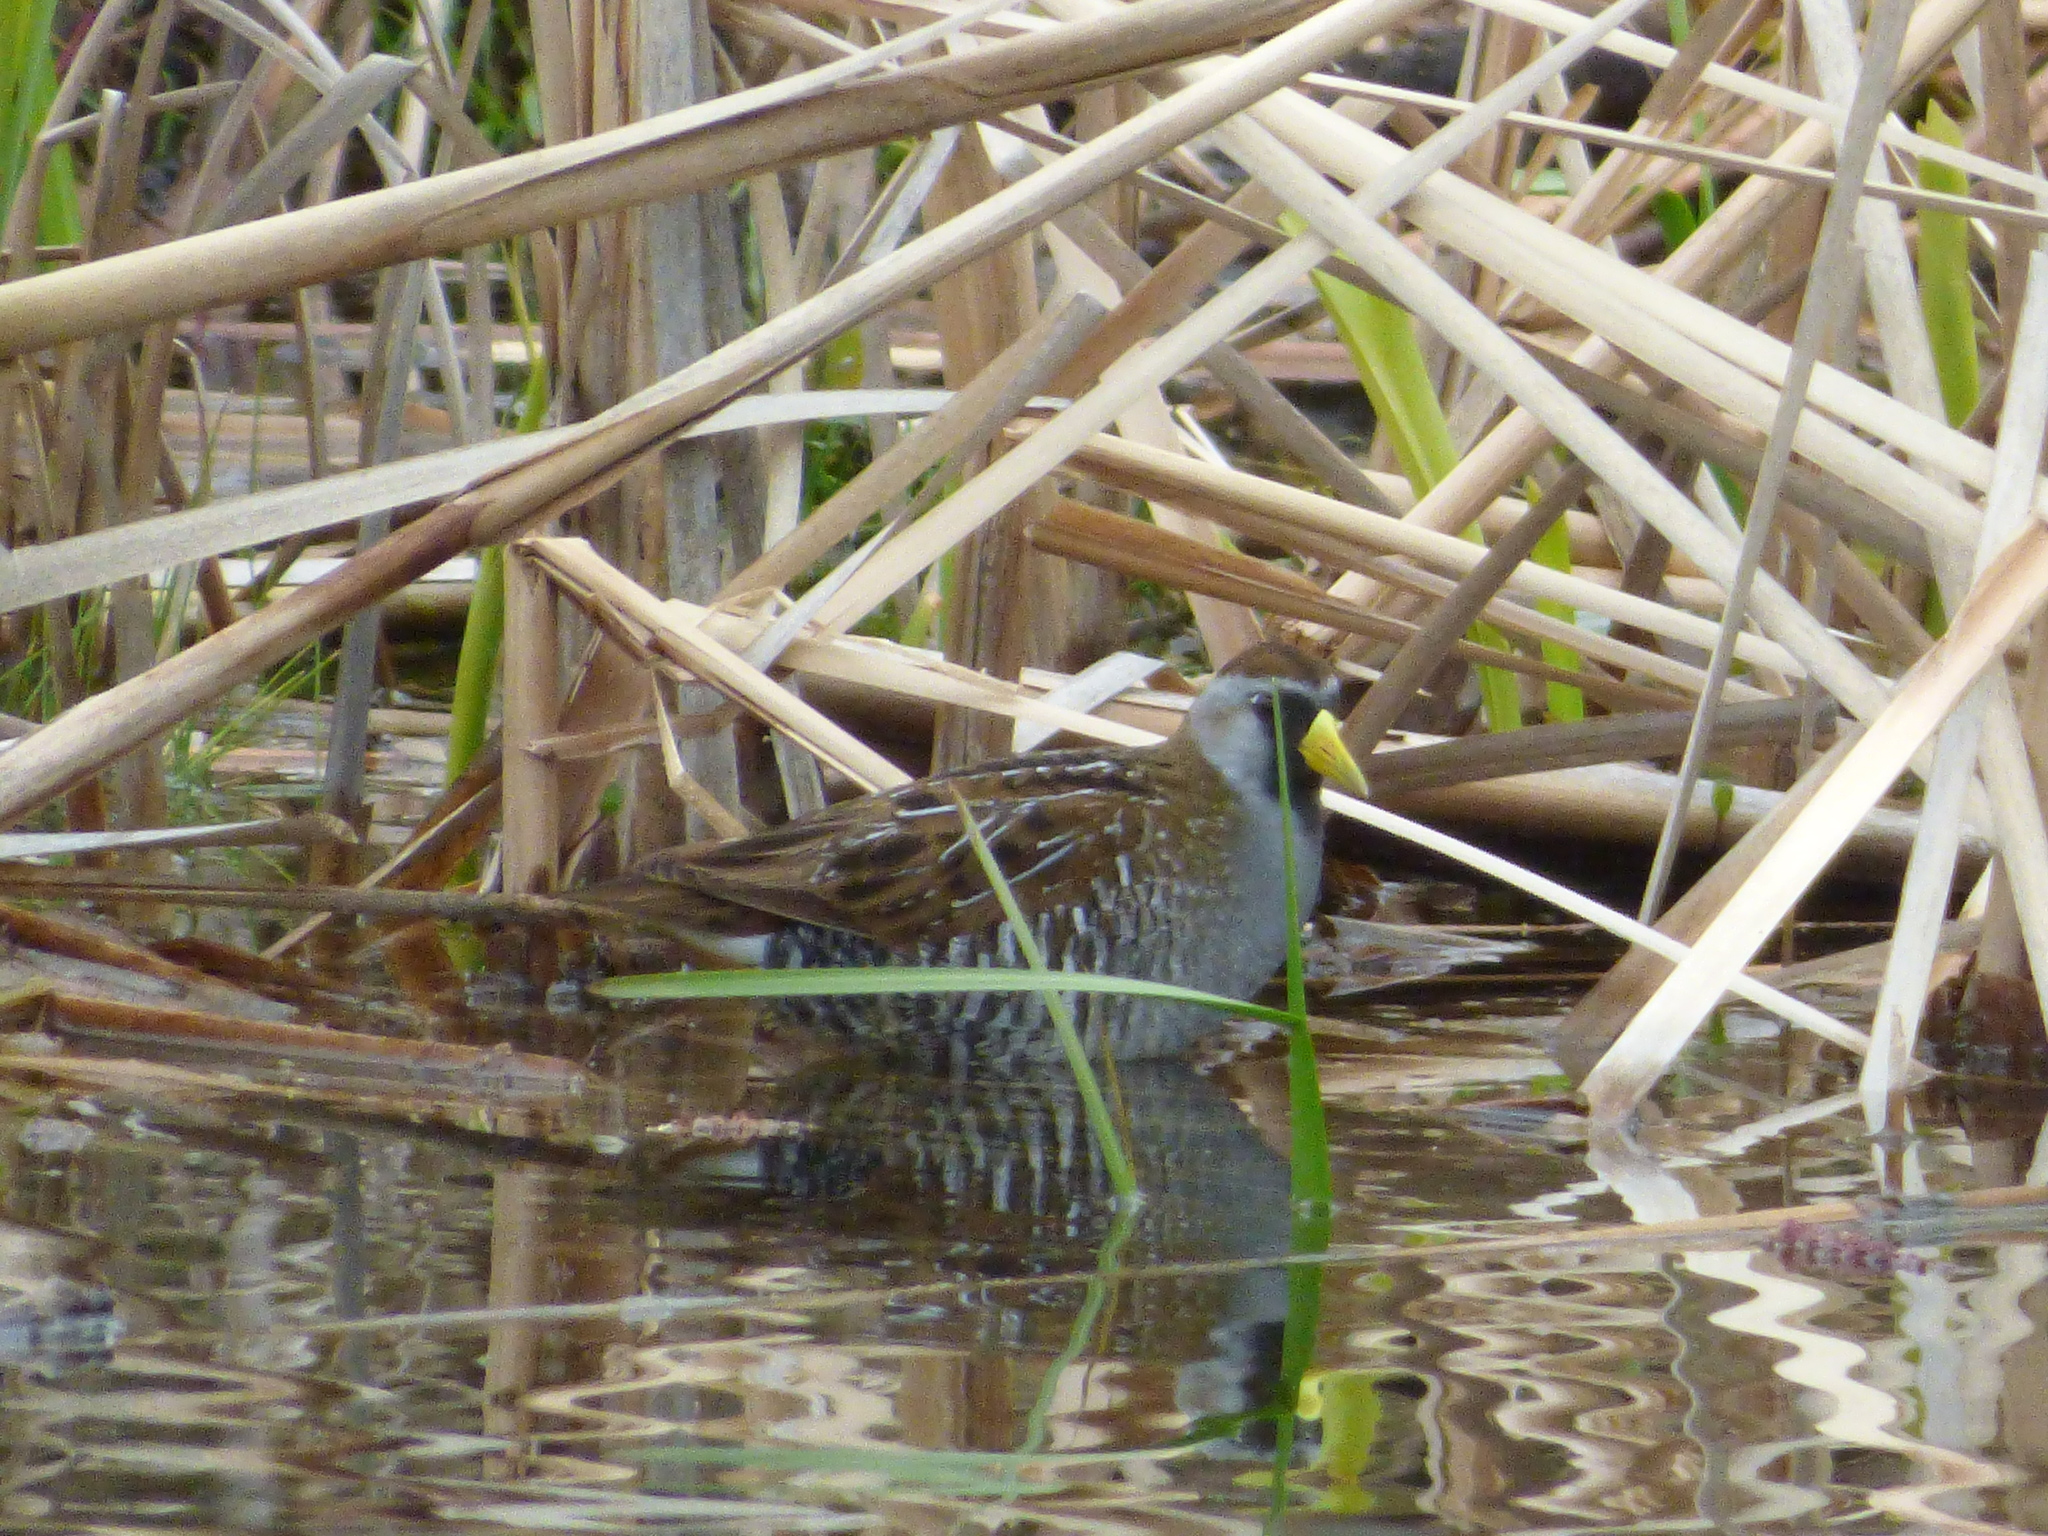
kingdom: Animalia
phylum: Chordata
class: Aves
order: Gruiformes
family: Rallidae
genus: Porzana
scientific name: Porzana carolina
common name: Sora
